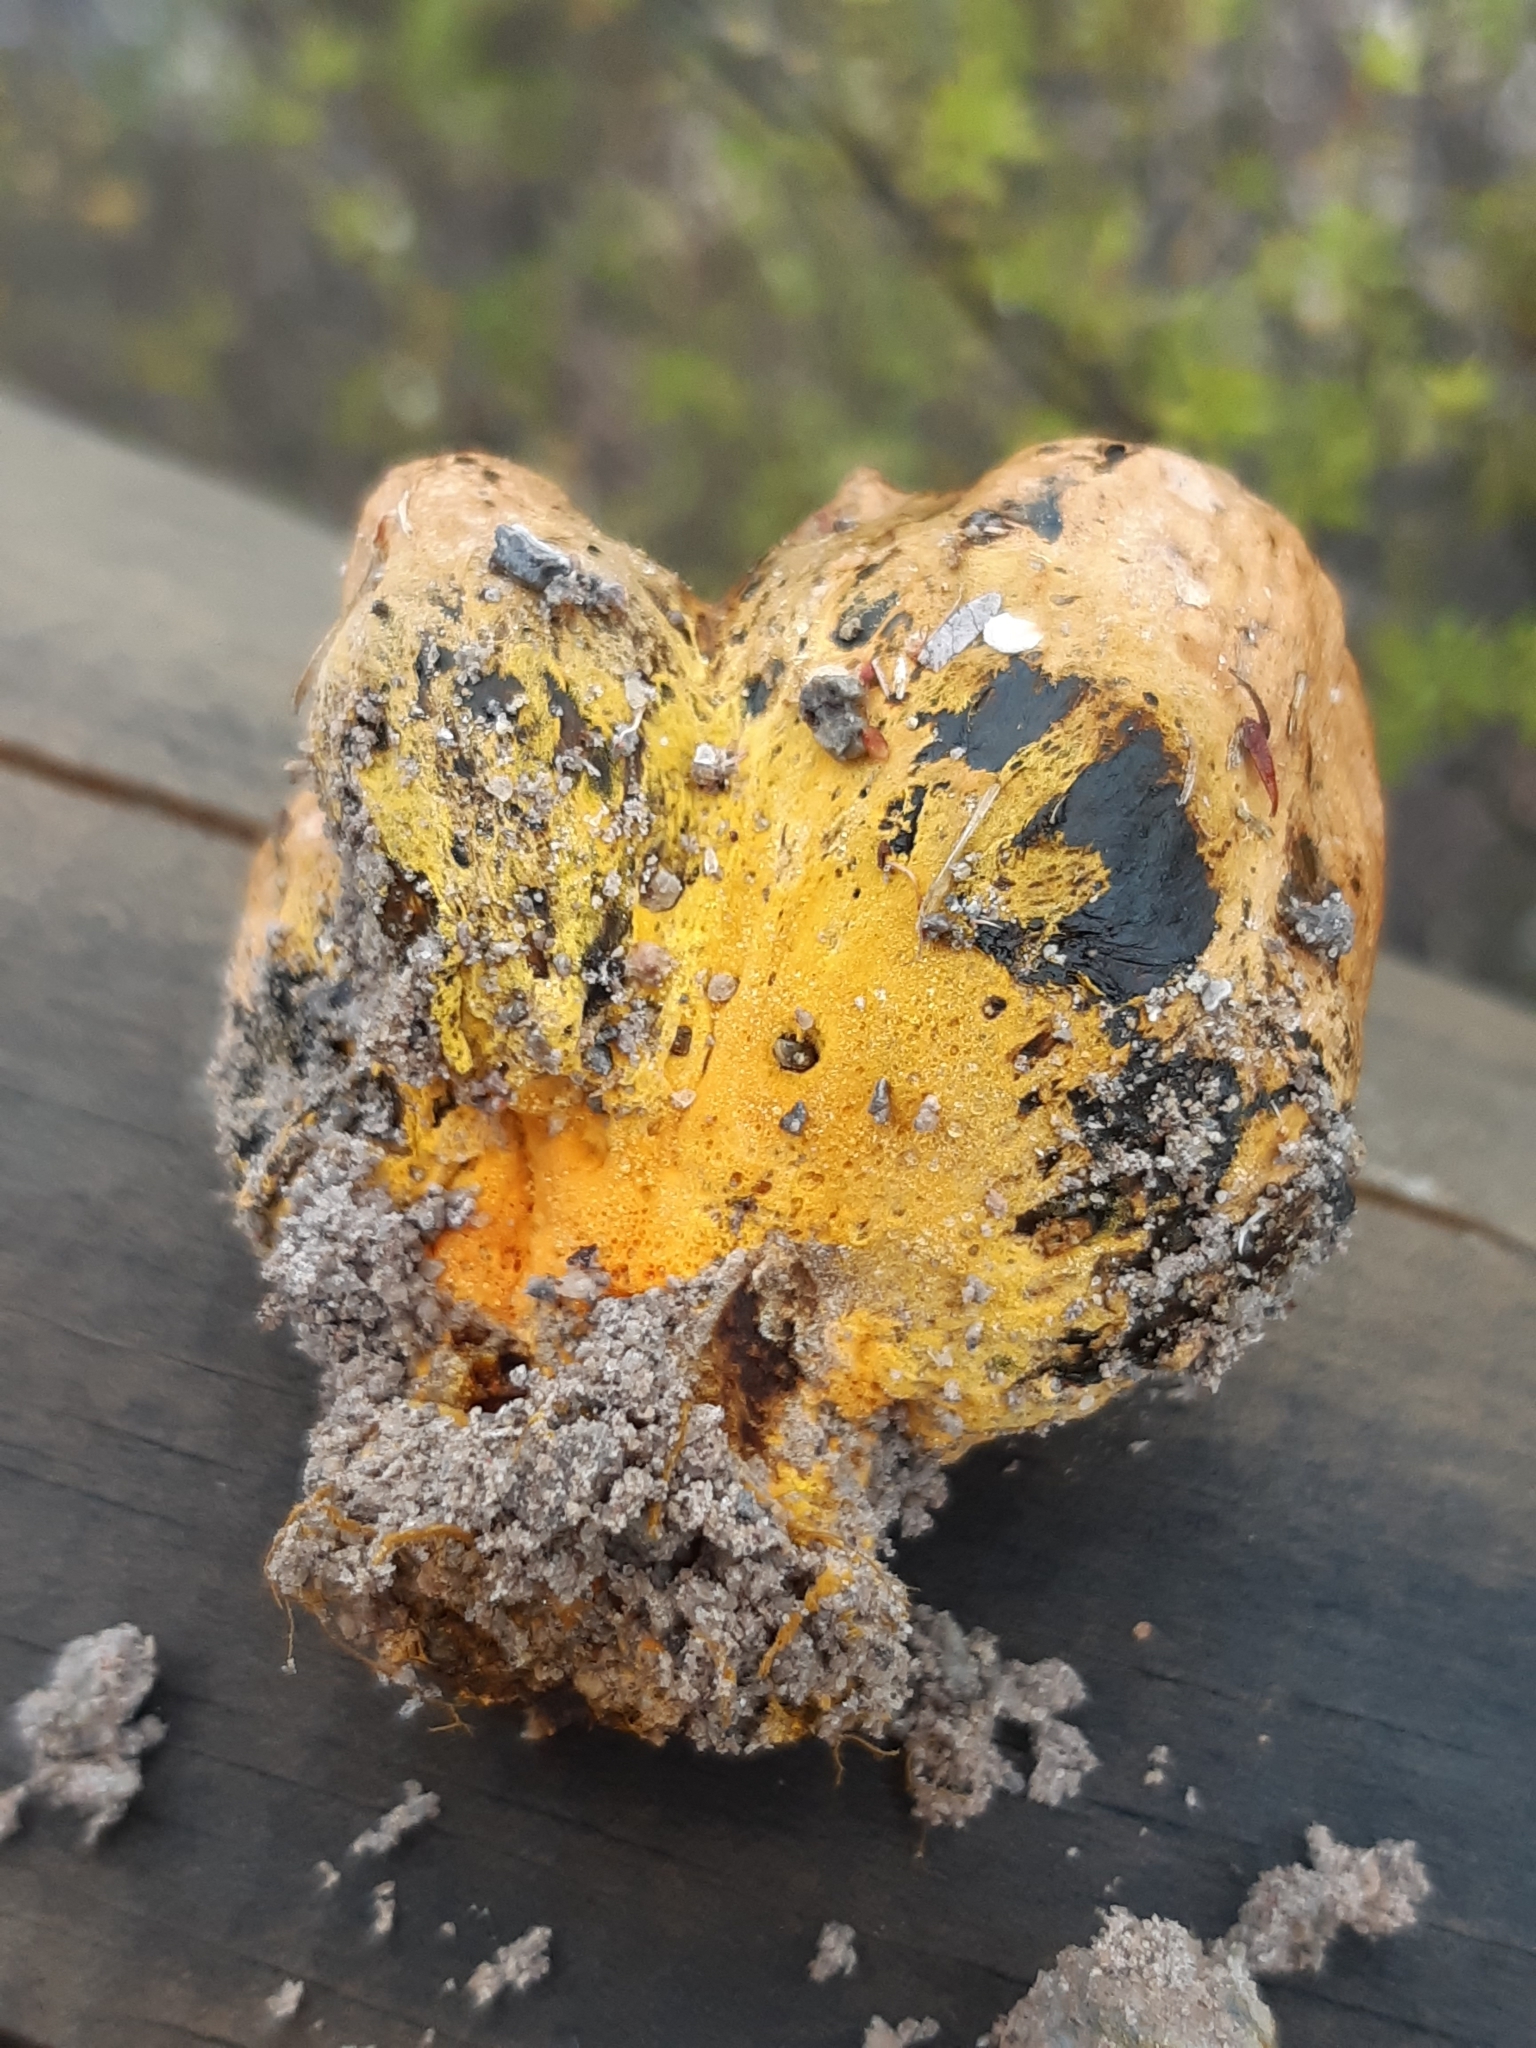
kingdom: Fungi
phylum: Basidiomycota
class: Agaricomycetes
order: Boletales
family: Sclerodermataceae
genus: Pisolithus
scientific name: Pisolithus thermaeus
